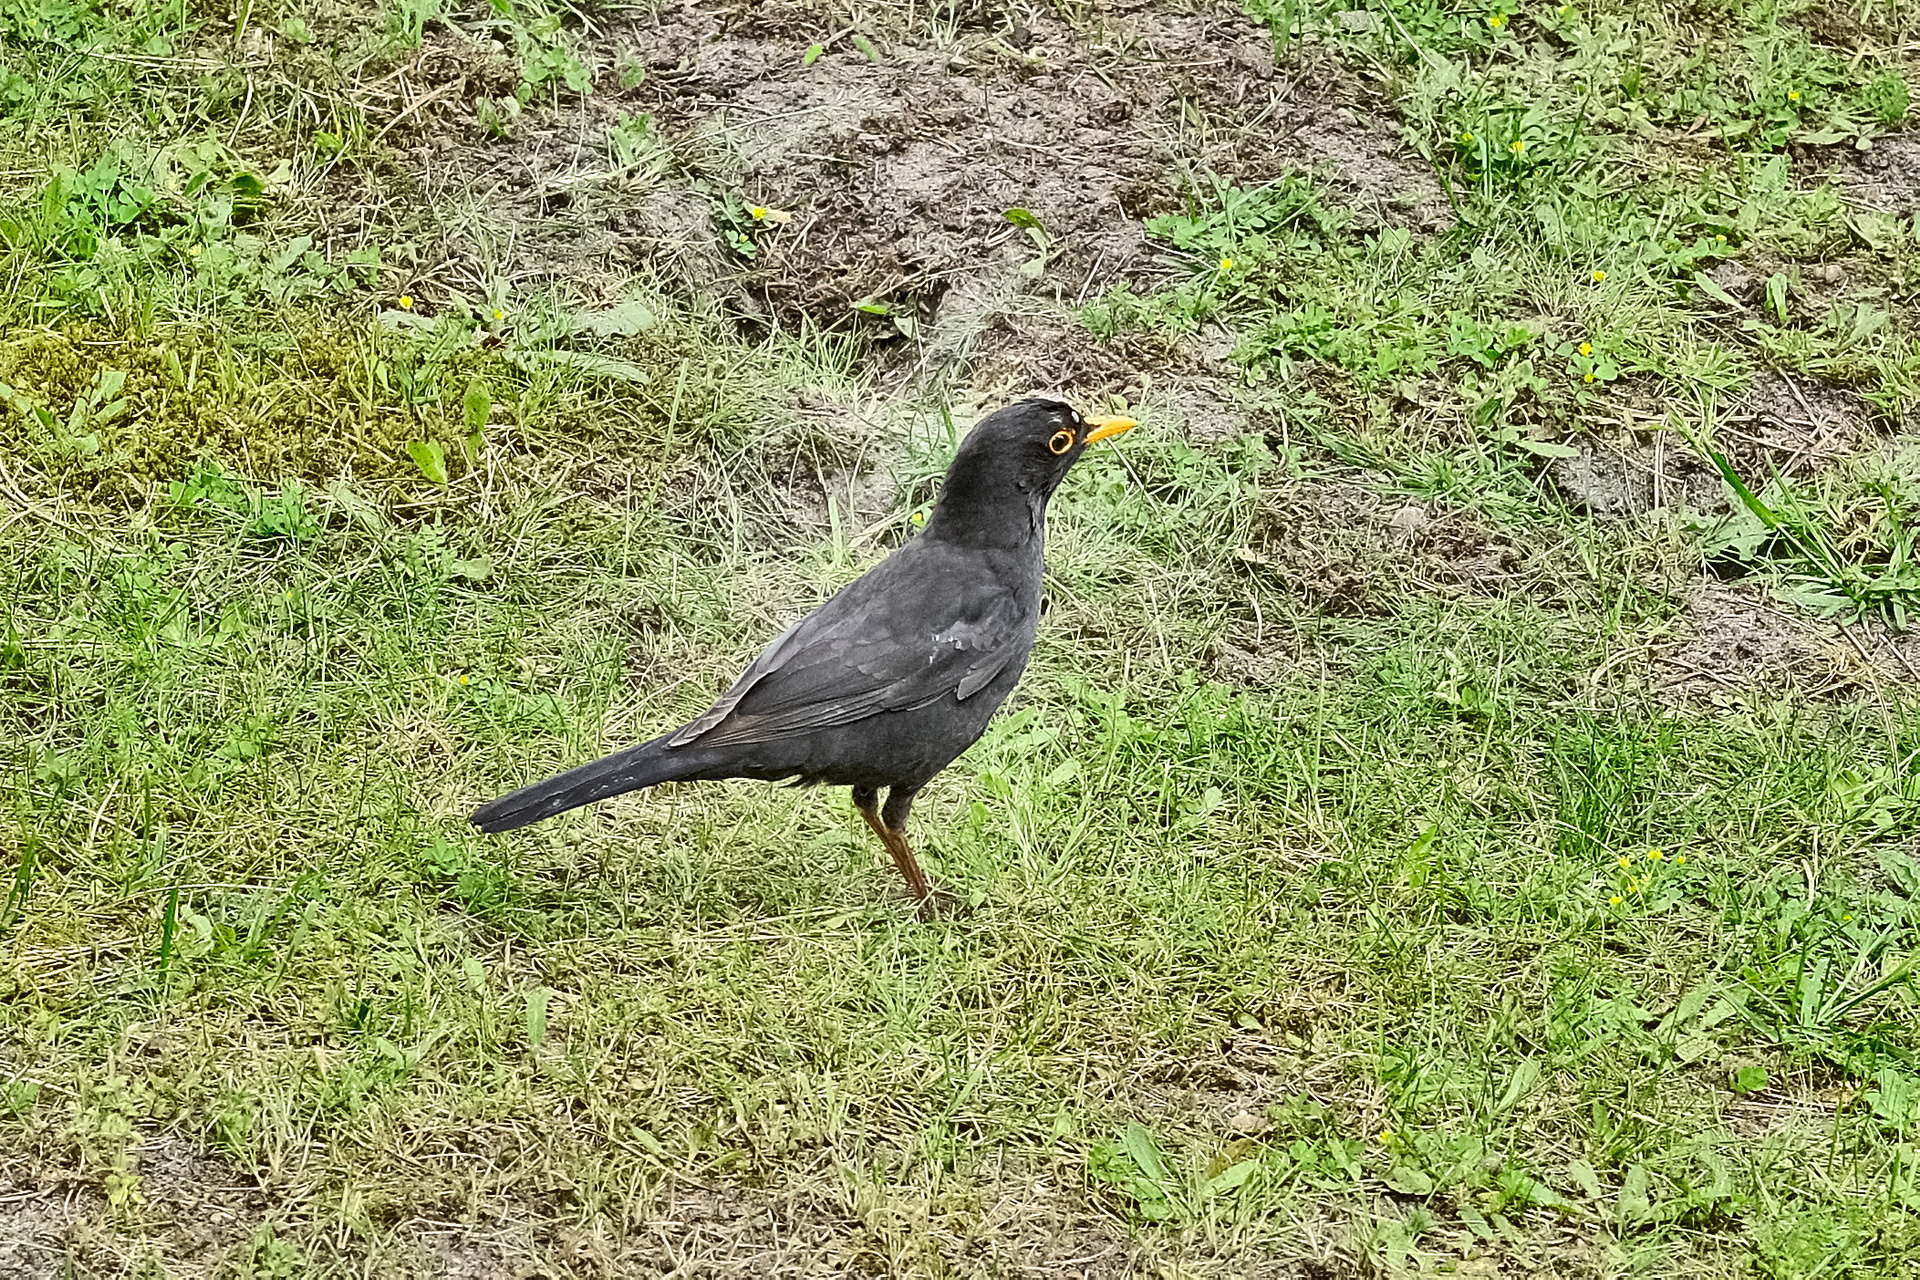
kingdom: Animalia
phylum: Chordata
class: Aves
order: Passeriformes
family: Turdidae
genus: Turdus
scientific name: Turdus merula
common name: Common blackbird
